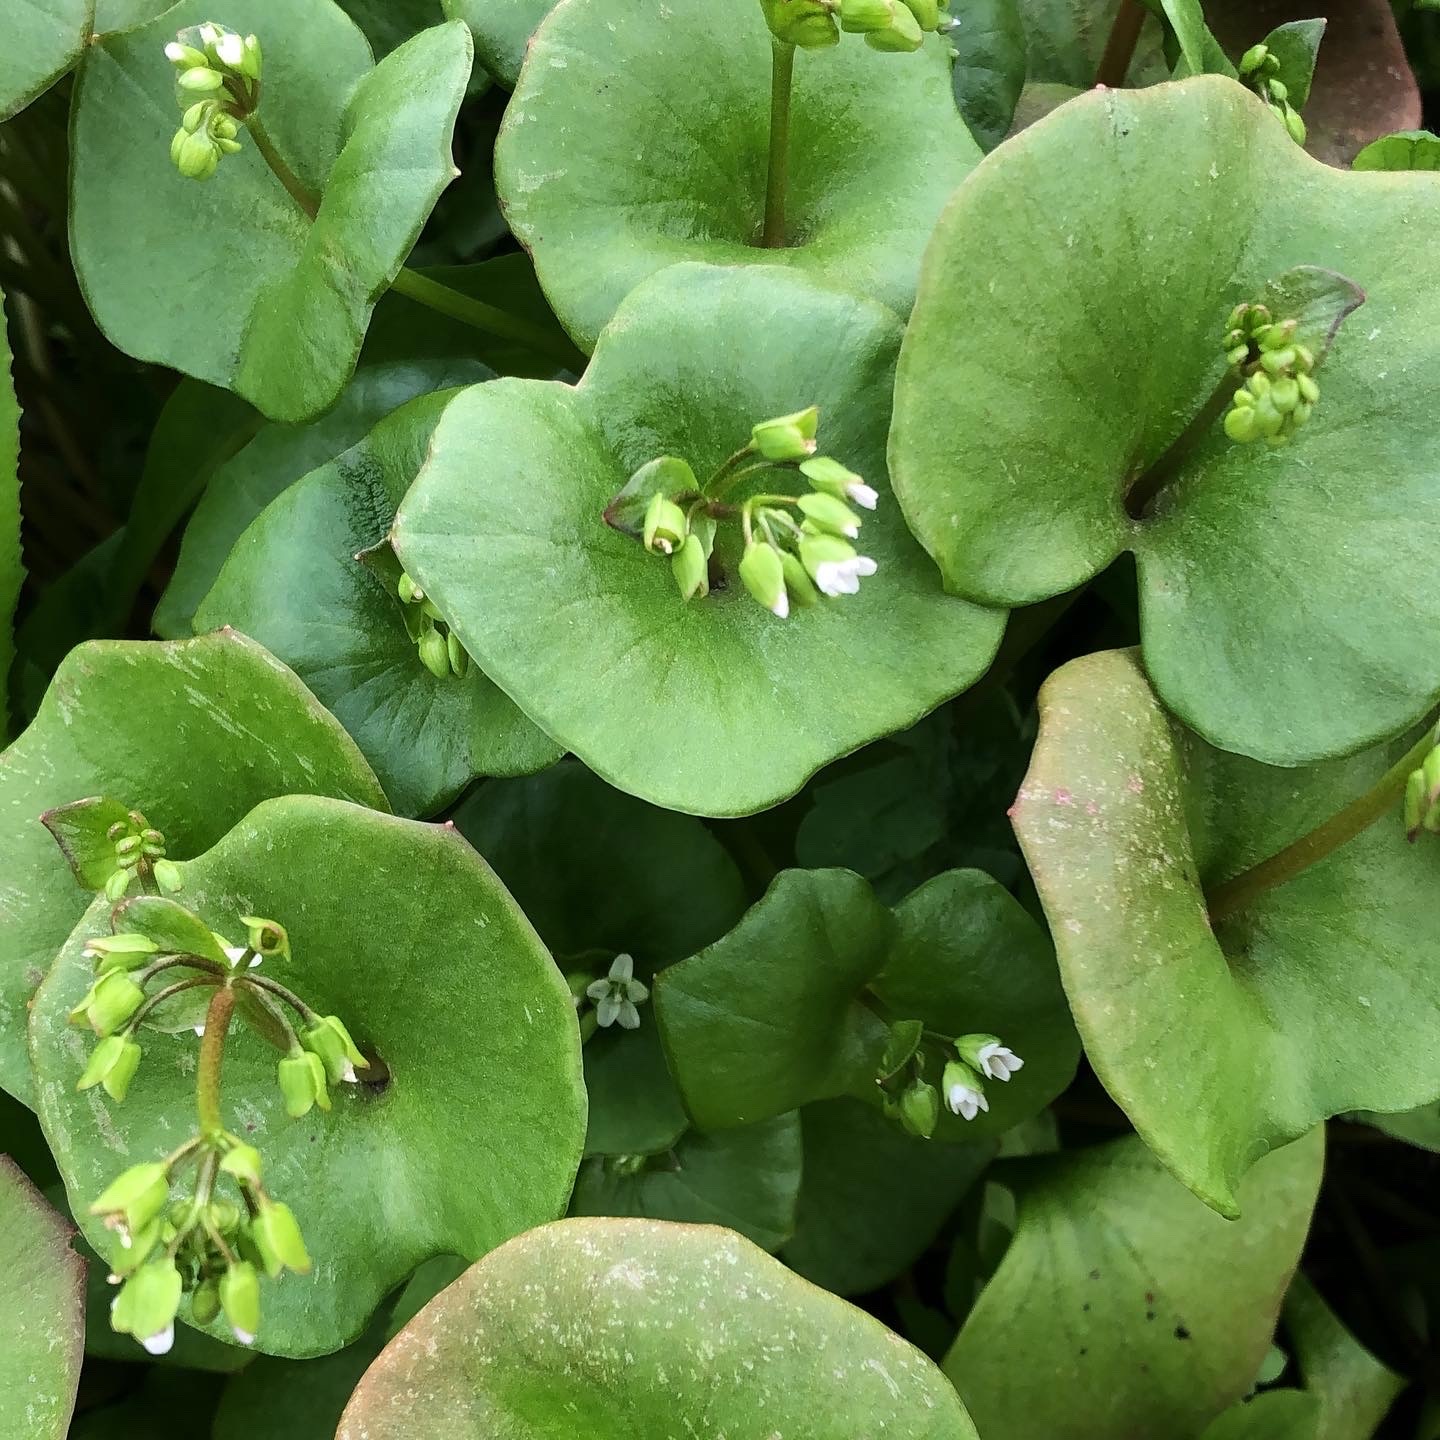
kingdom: Plantae
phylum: Tracheophyta
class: Magnoliopsida
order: Caryophyllales
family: Montiaceae
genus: Claytonia
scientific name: Claytonia perfoliata
